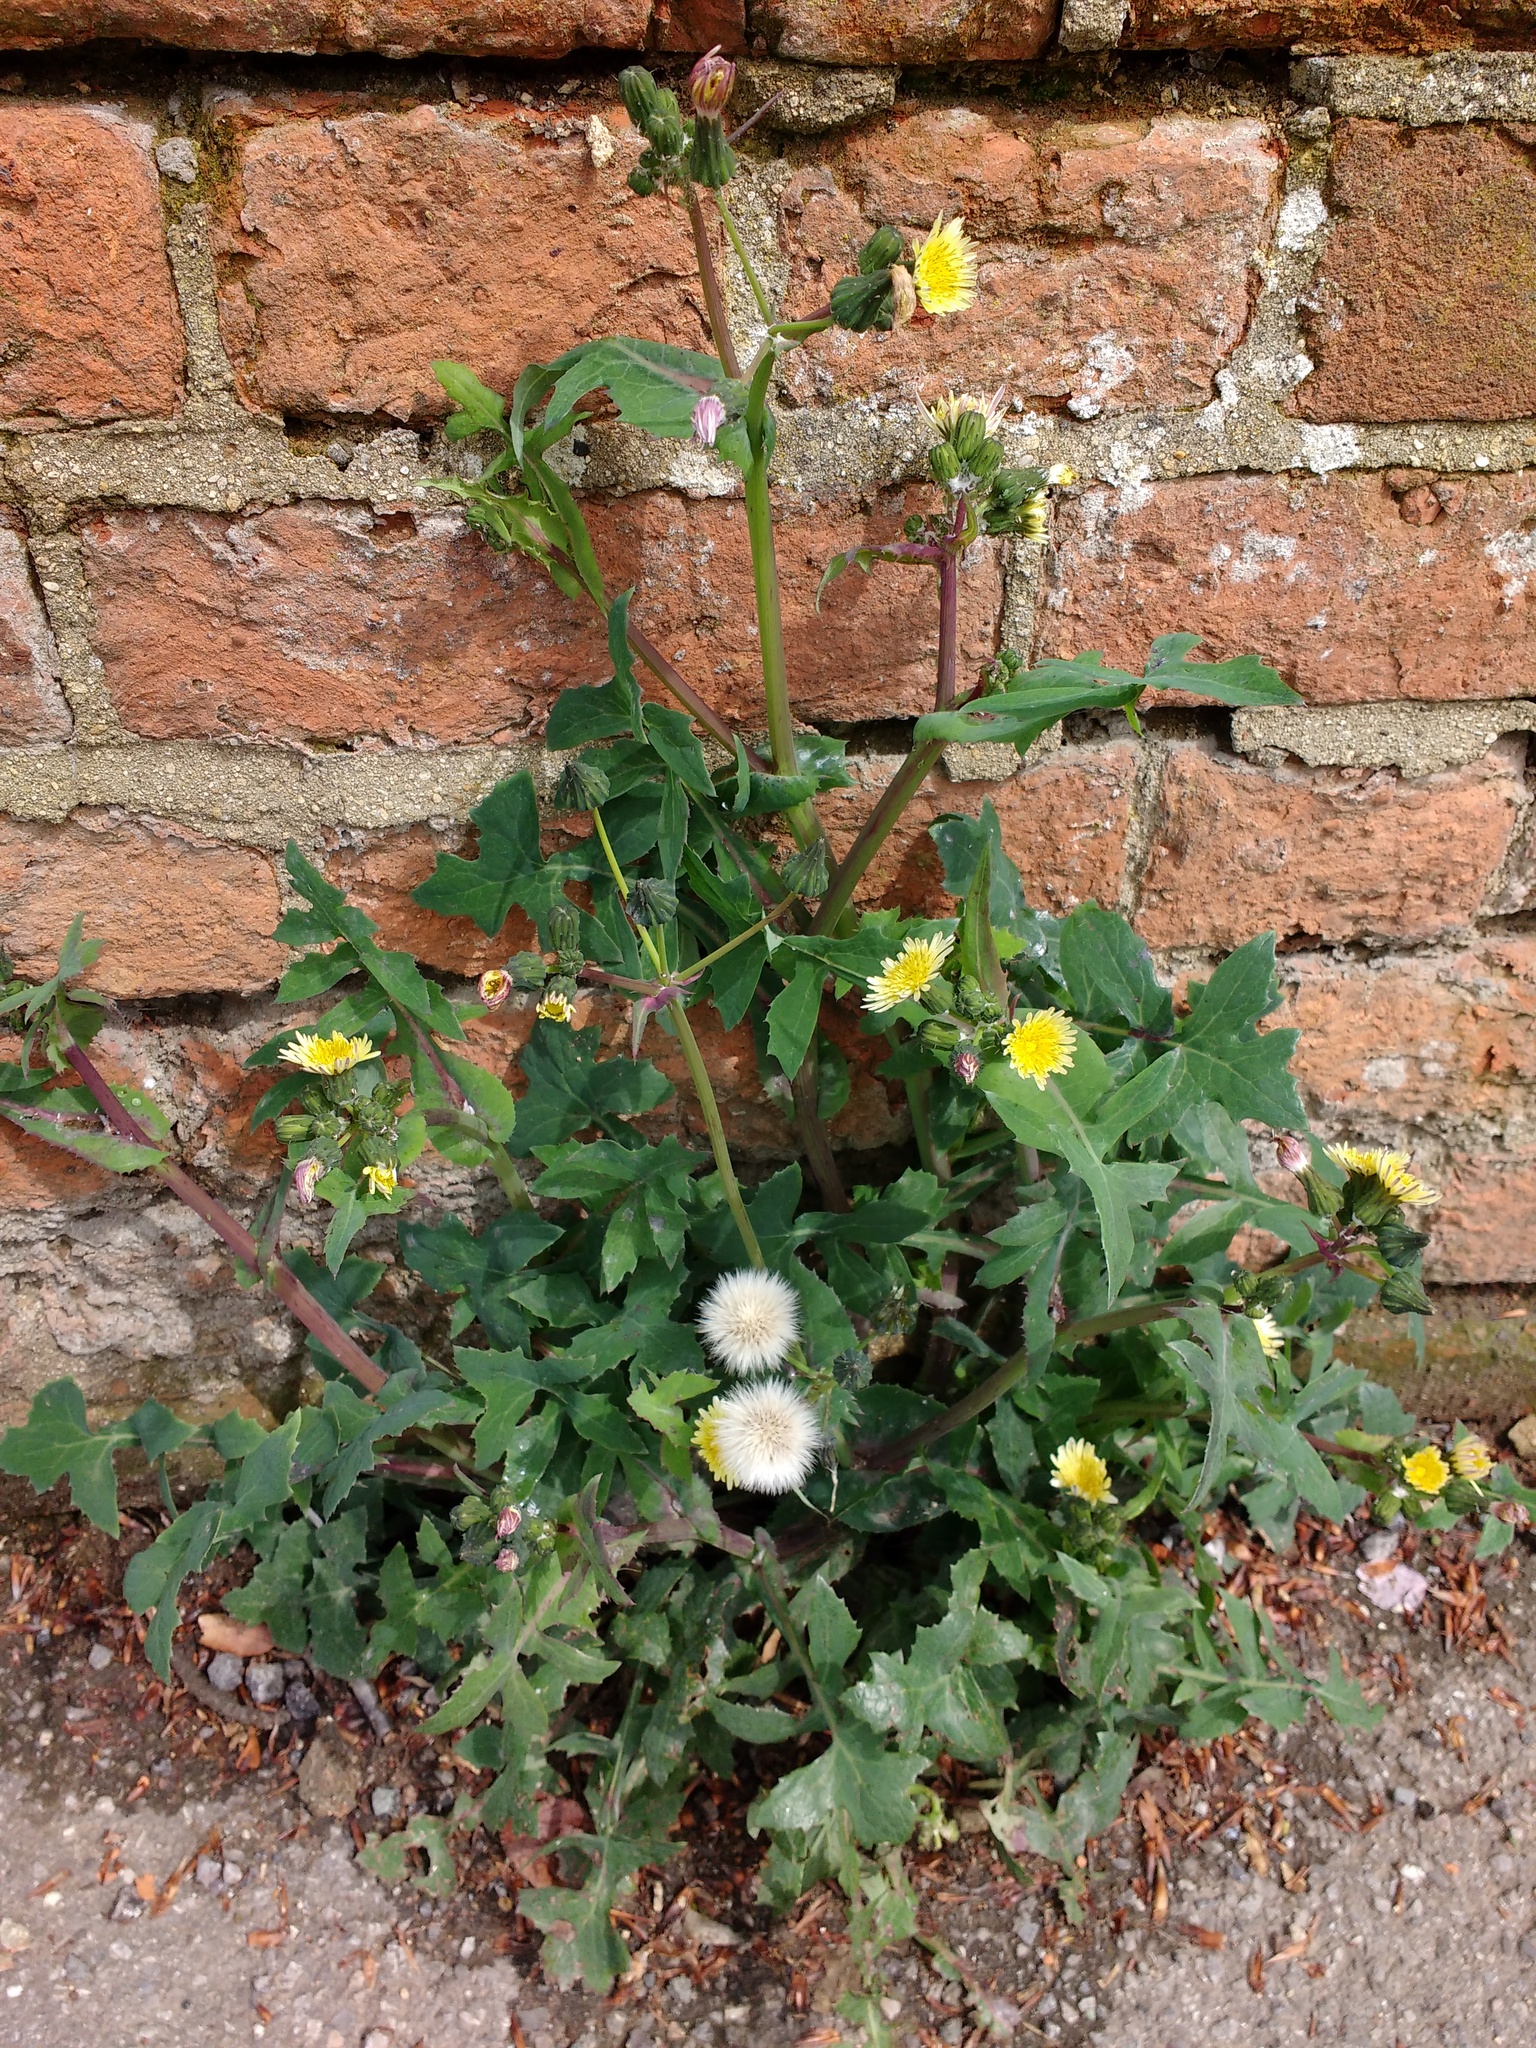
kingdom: Plantae
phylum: Tracheophyta
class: Magnoliopsida
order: Asterales
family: Asteraceae
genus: Sonchus
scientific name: Sonchus oleraceus
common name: Common sowthistle
